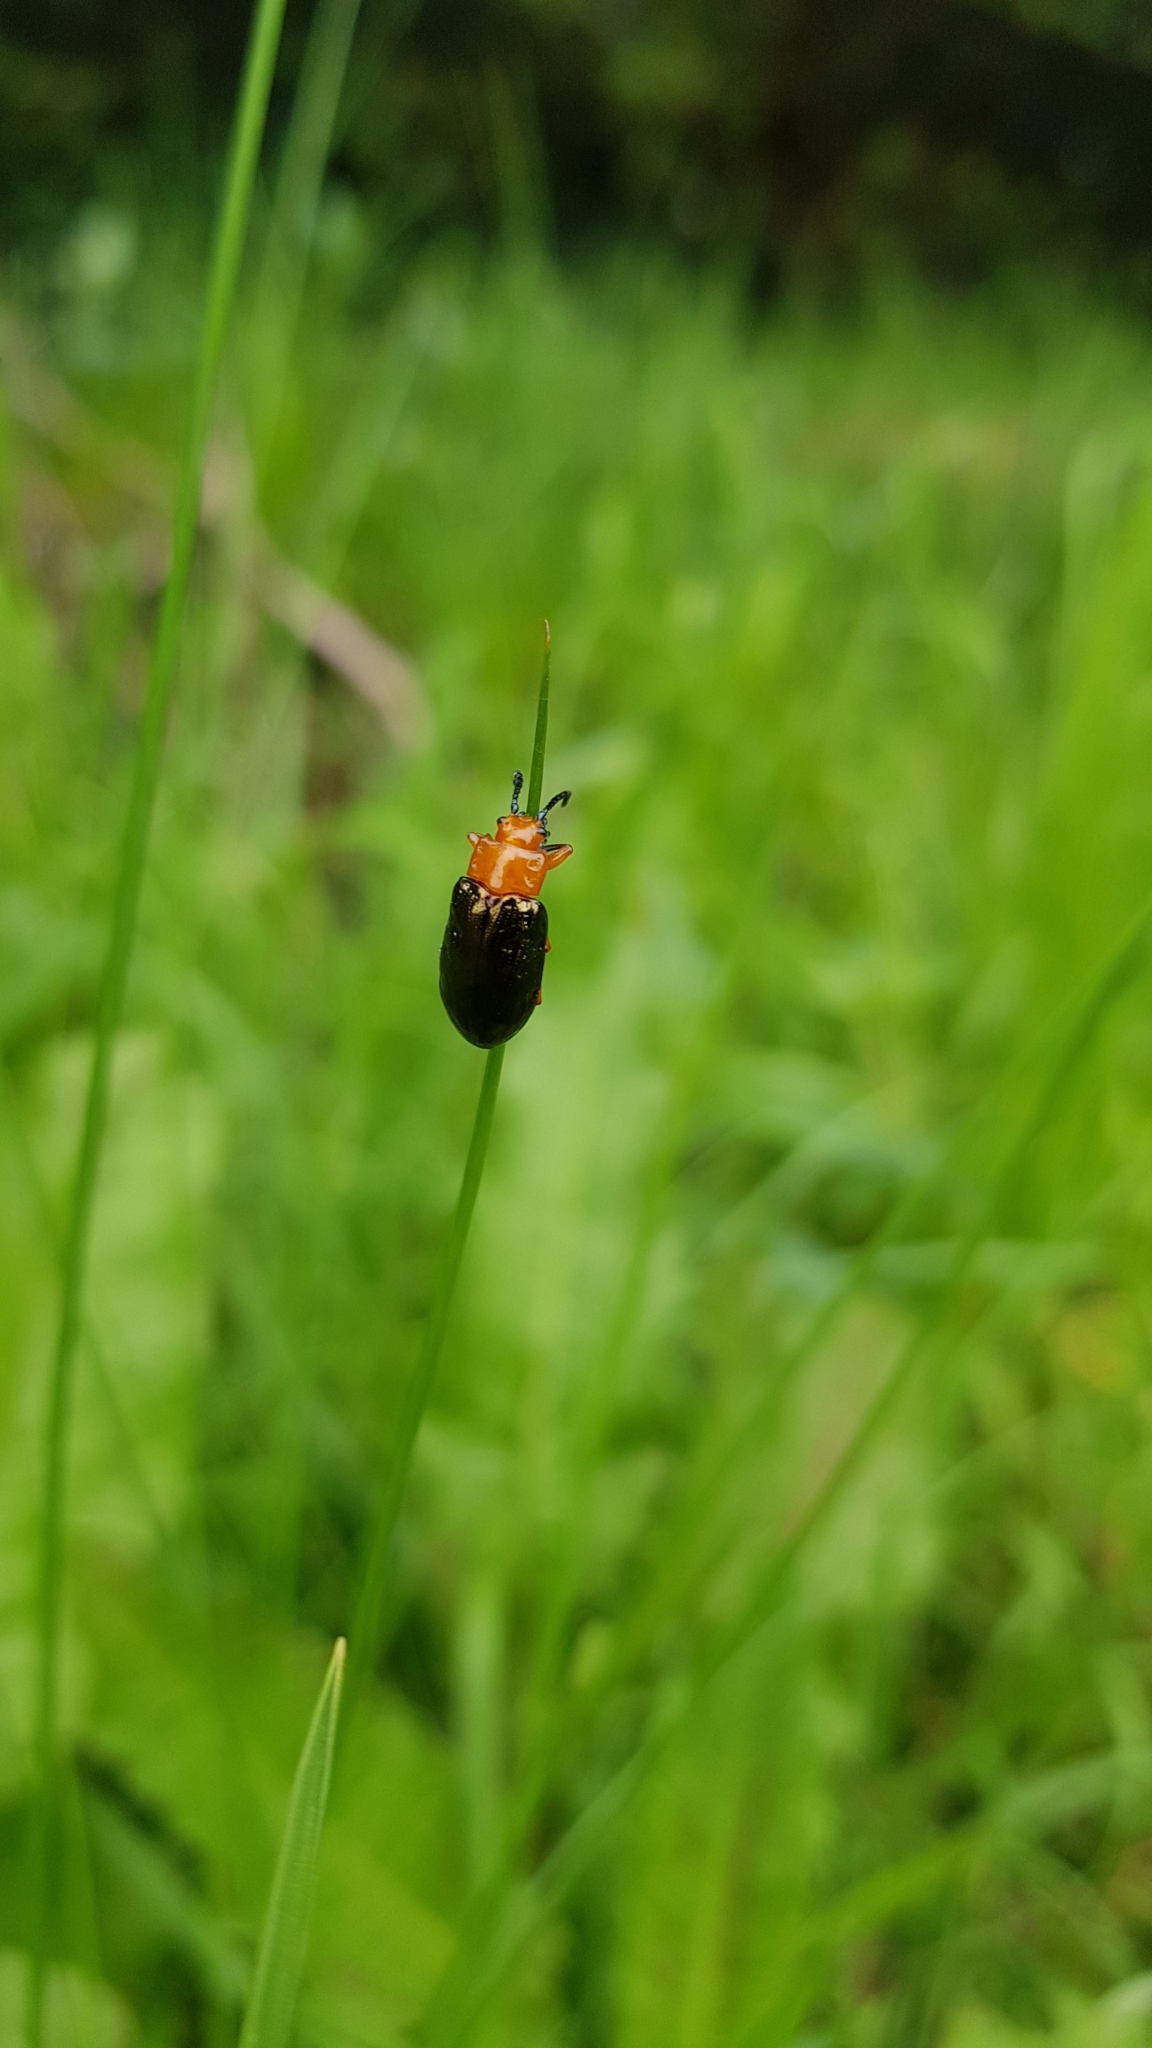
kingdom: Animalia
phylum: Arthropoda
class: Insecta
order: Coleoptera
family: Chrysomelidae
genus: Lamprolina
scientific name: Lamprolina
